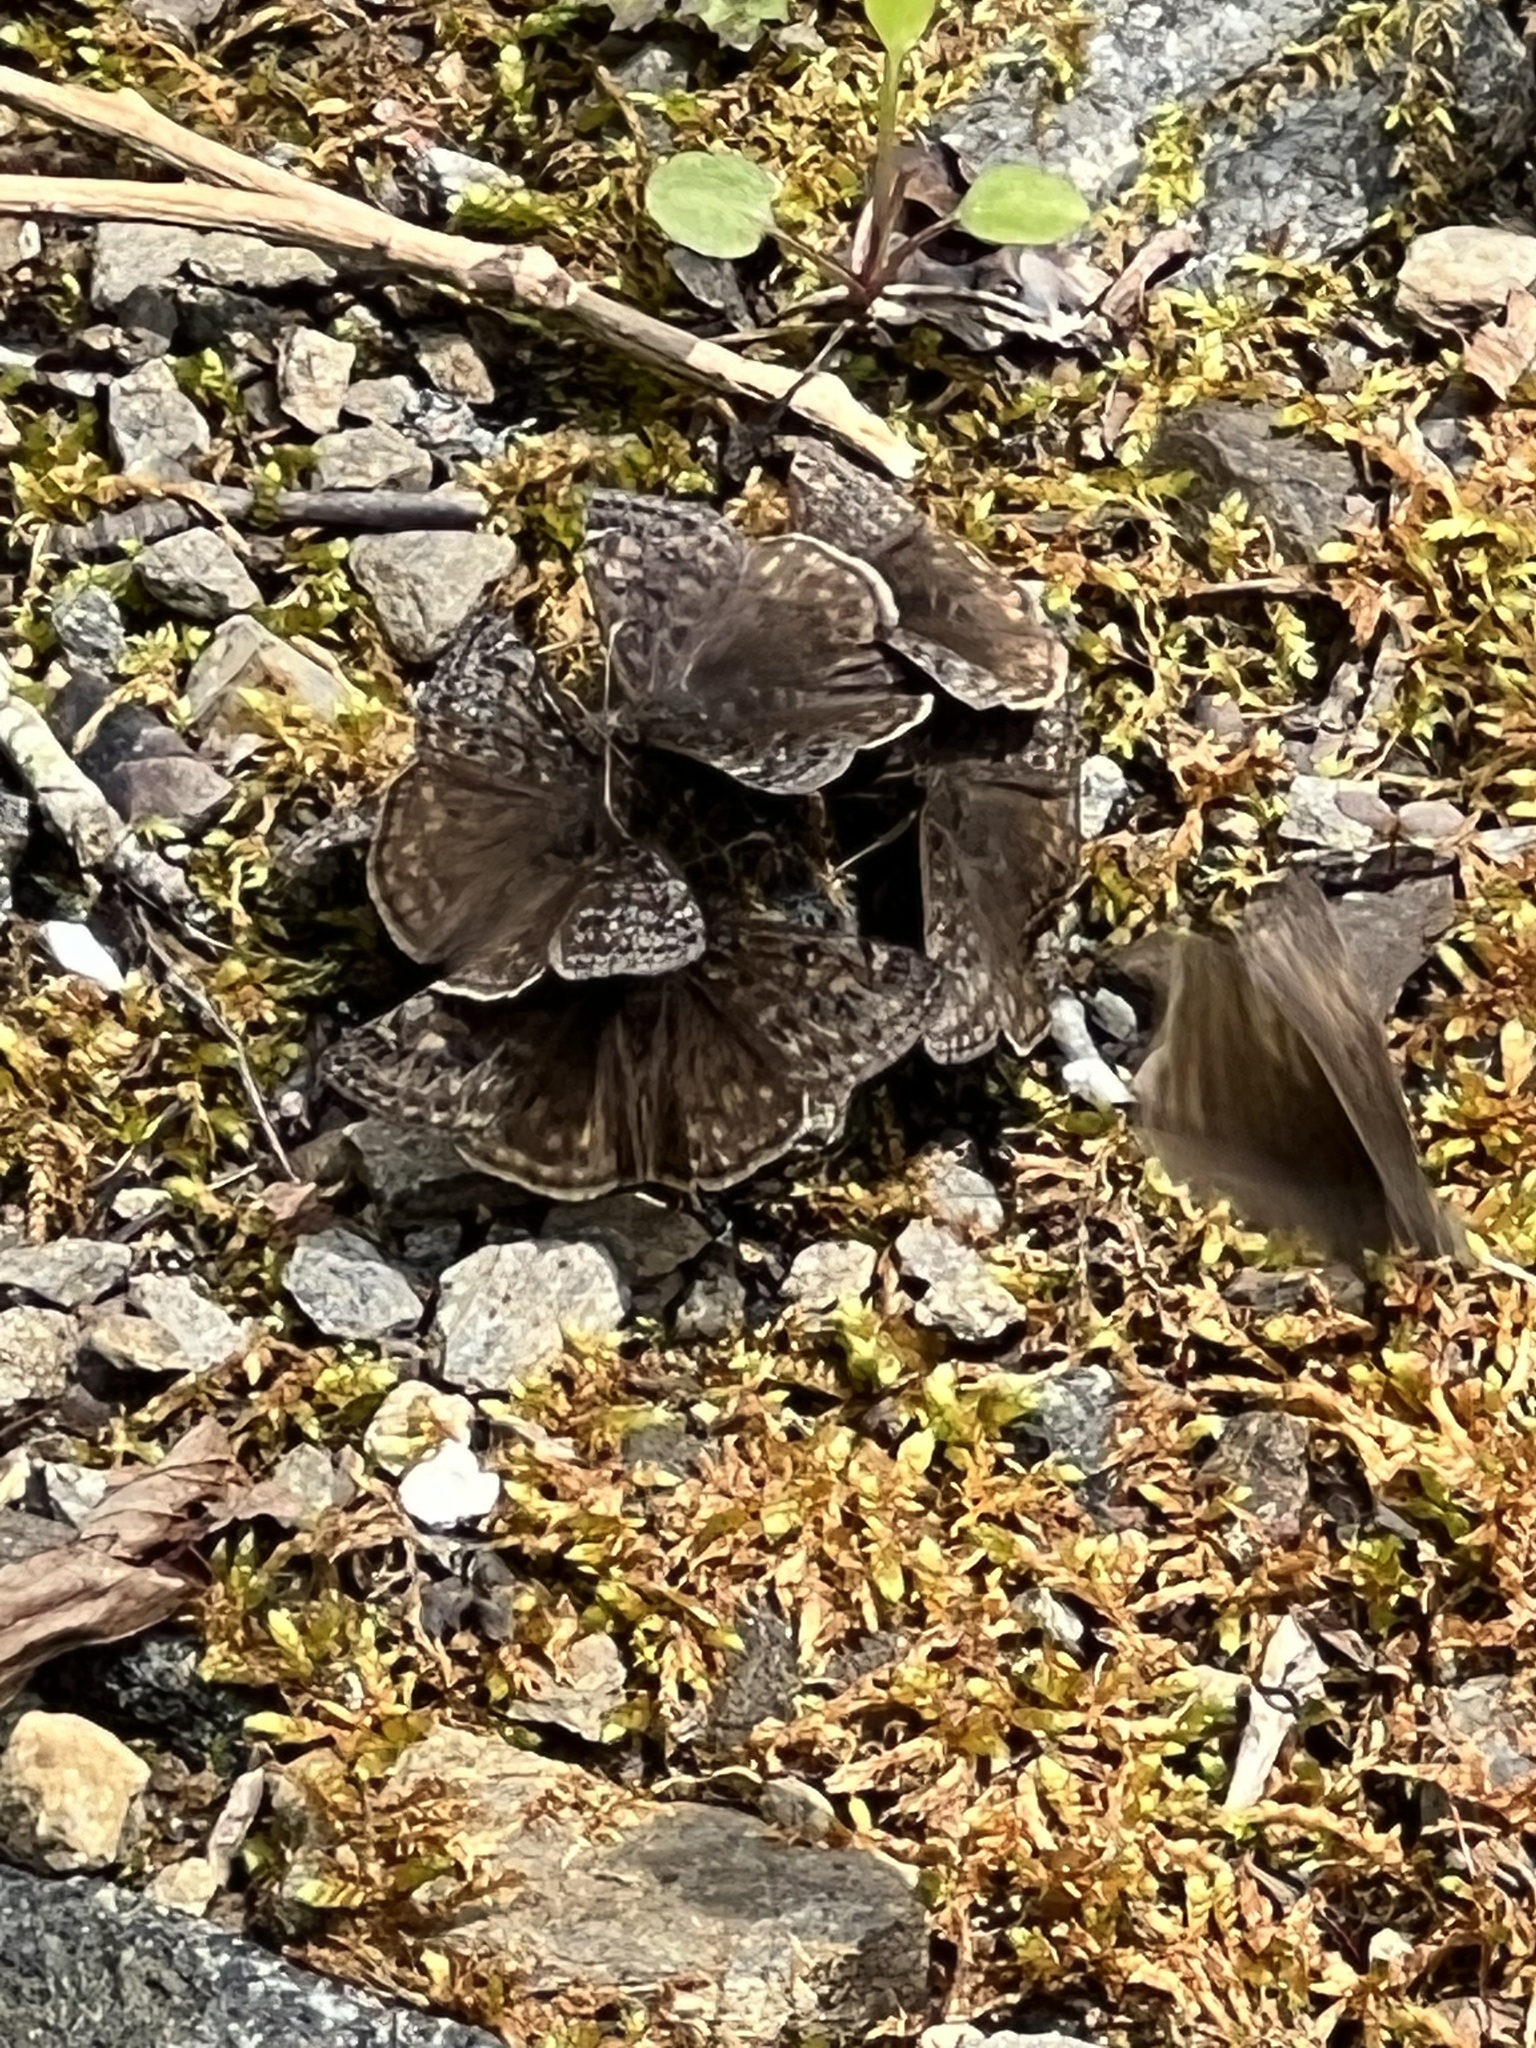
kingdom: Animalia
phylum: Arthropoda
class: Insecta
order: Lepidoptera
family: Hesperiidae
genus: Erynnis
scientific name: Erynnis juvenalis
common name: Juvenal's duskywing
